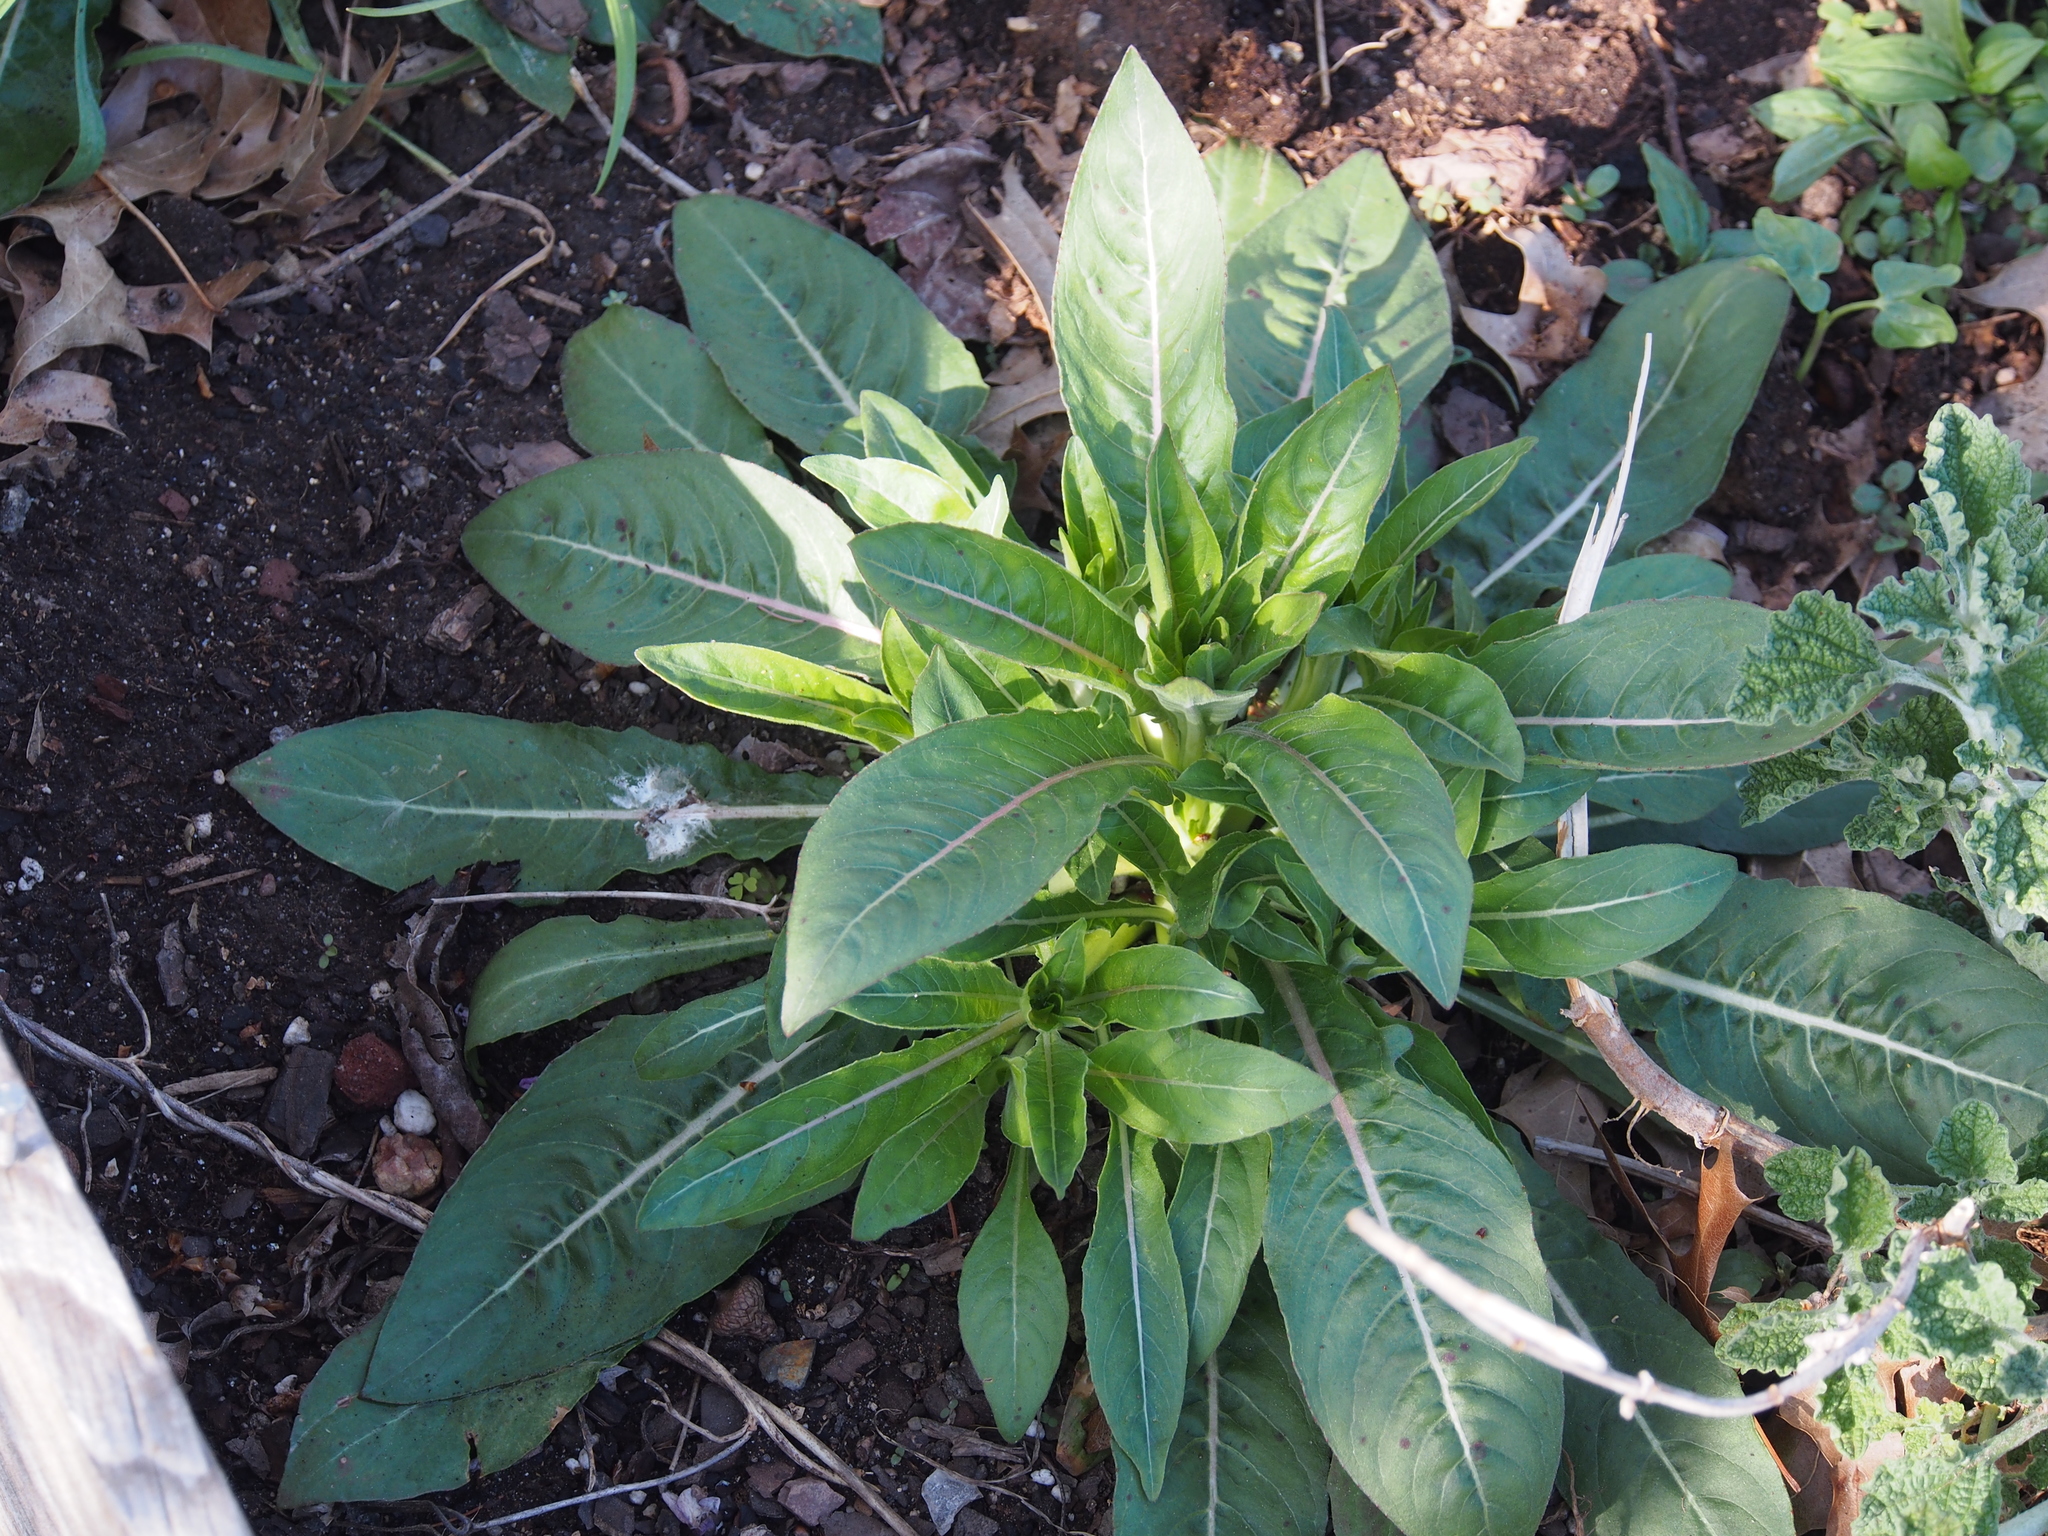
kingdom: Plantae
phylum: Tracheophyta
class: Magnoliopsida
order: Myrtales
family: Onagraceae
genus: Oenothera
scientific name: Oenothera biennis
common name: Common evening-primrose
